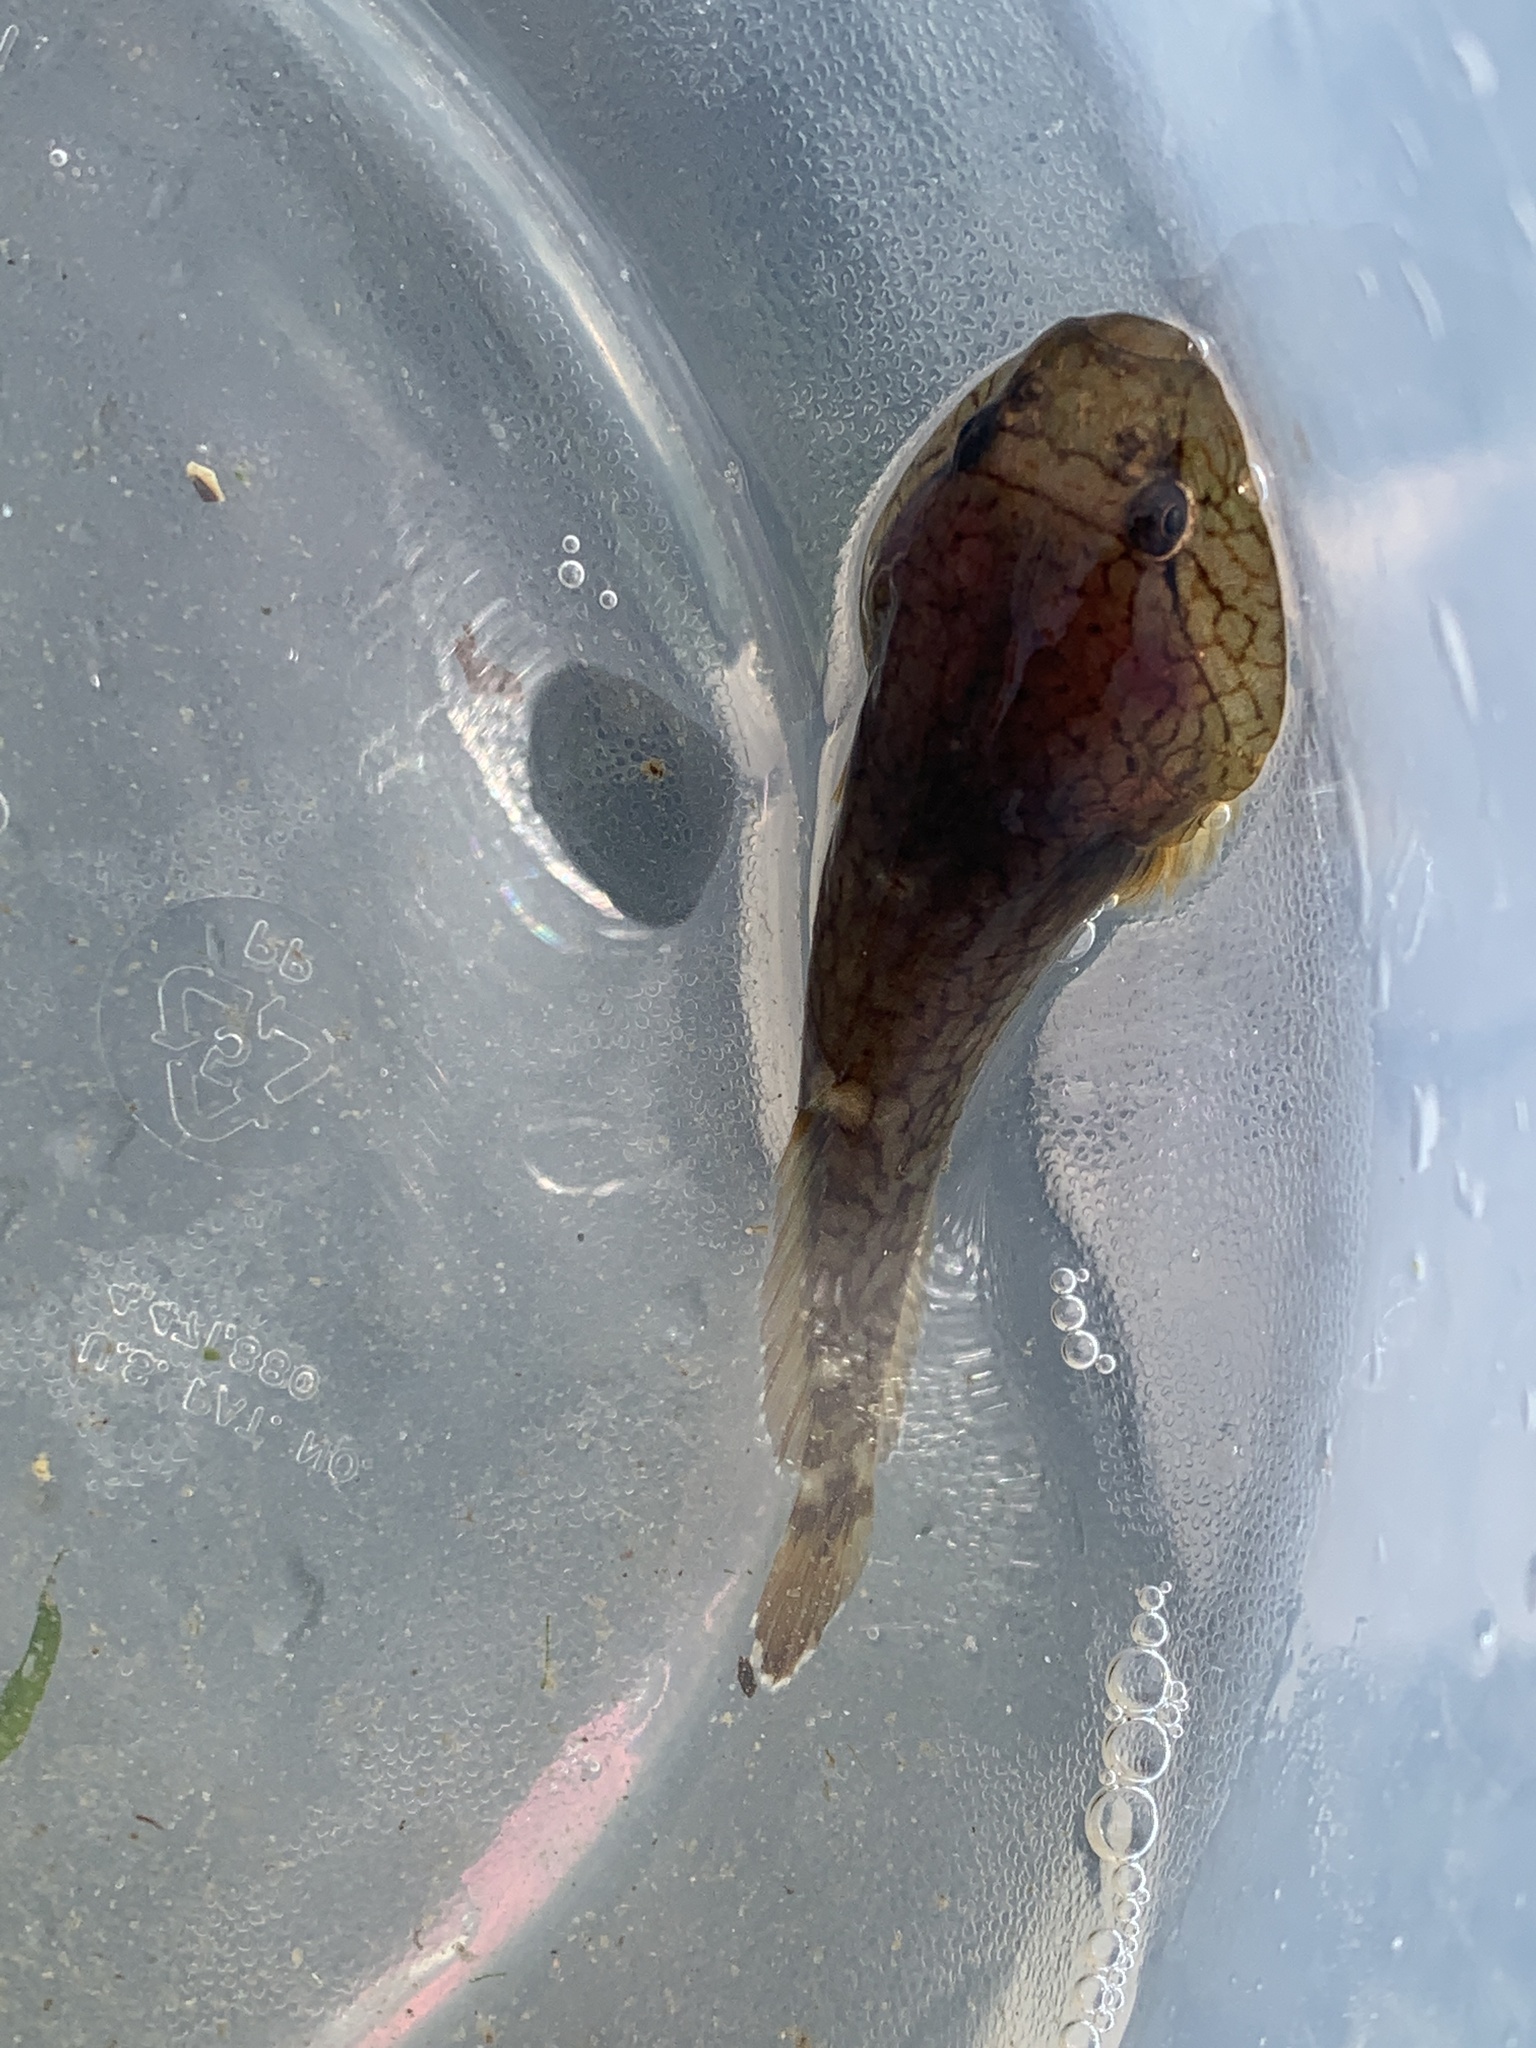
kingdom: Animalia
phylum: Chordata
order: Gobiesociformes
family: Gobiesocidae
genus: Gobiesox
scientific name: Gobiesox maeandricus
